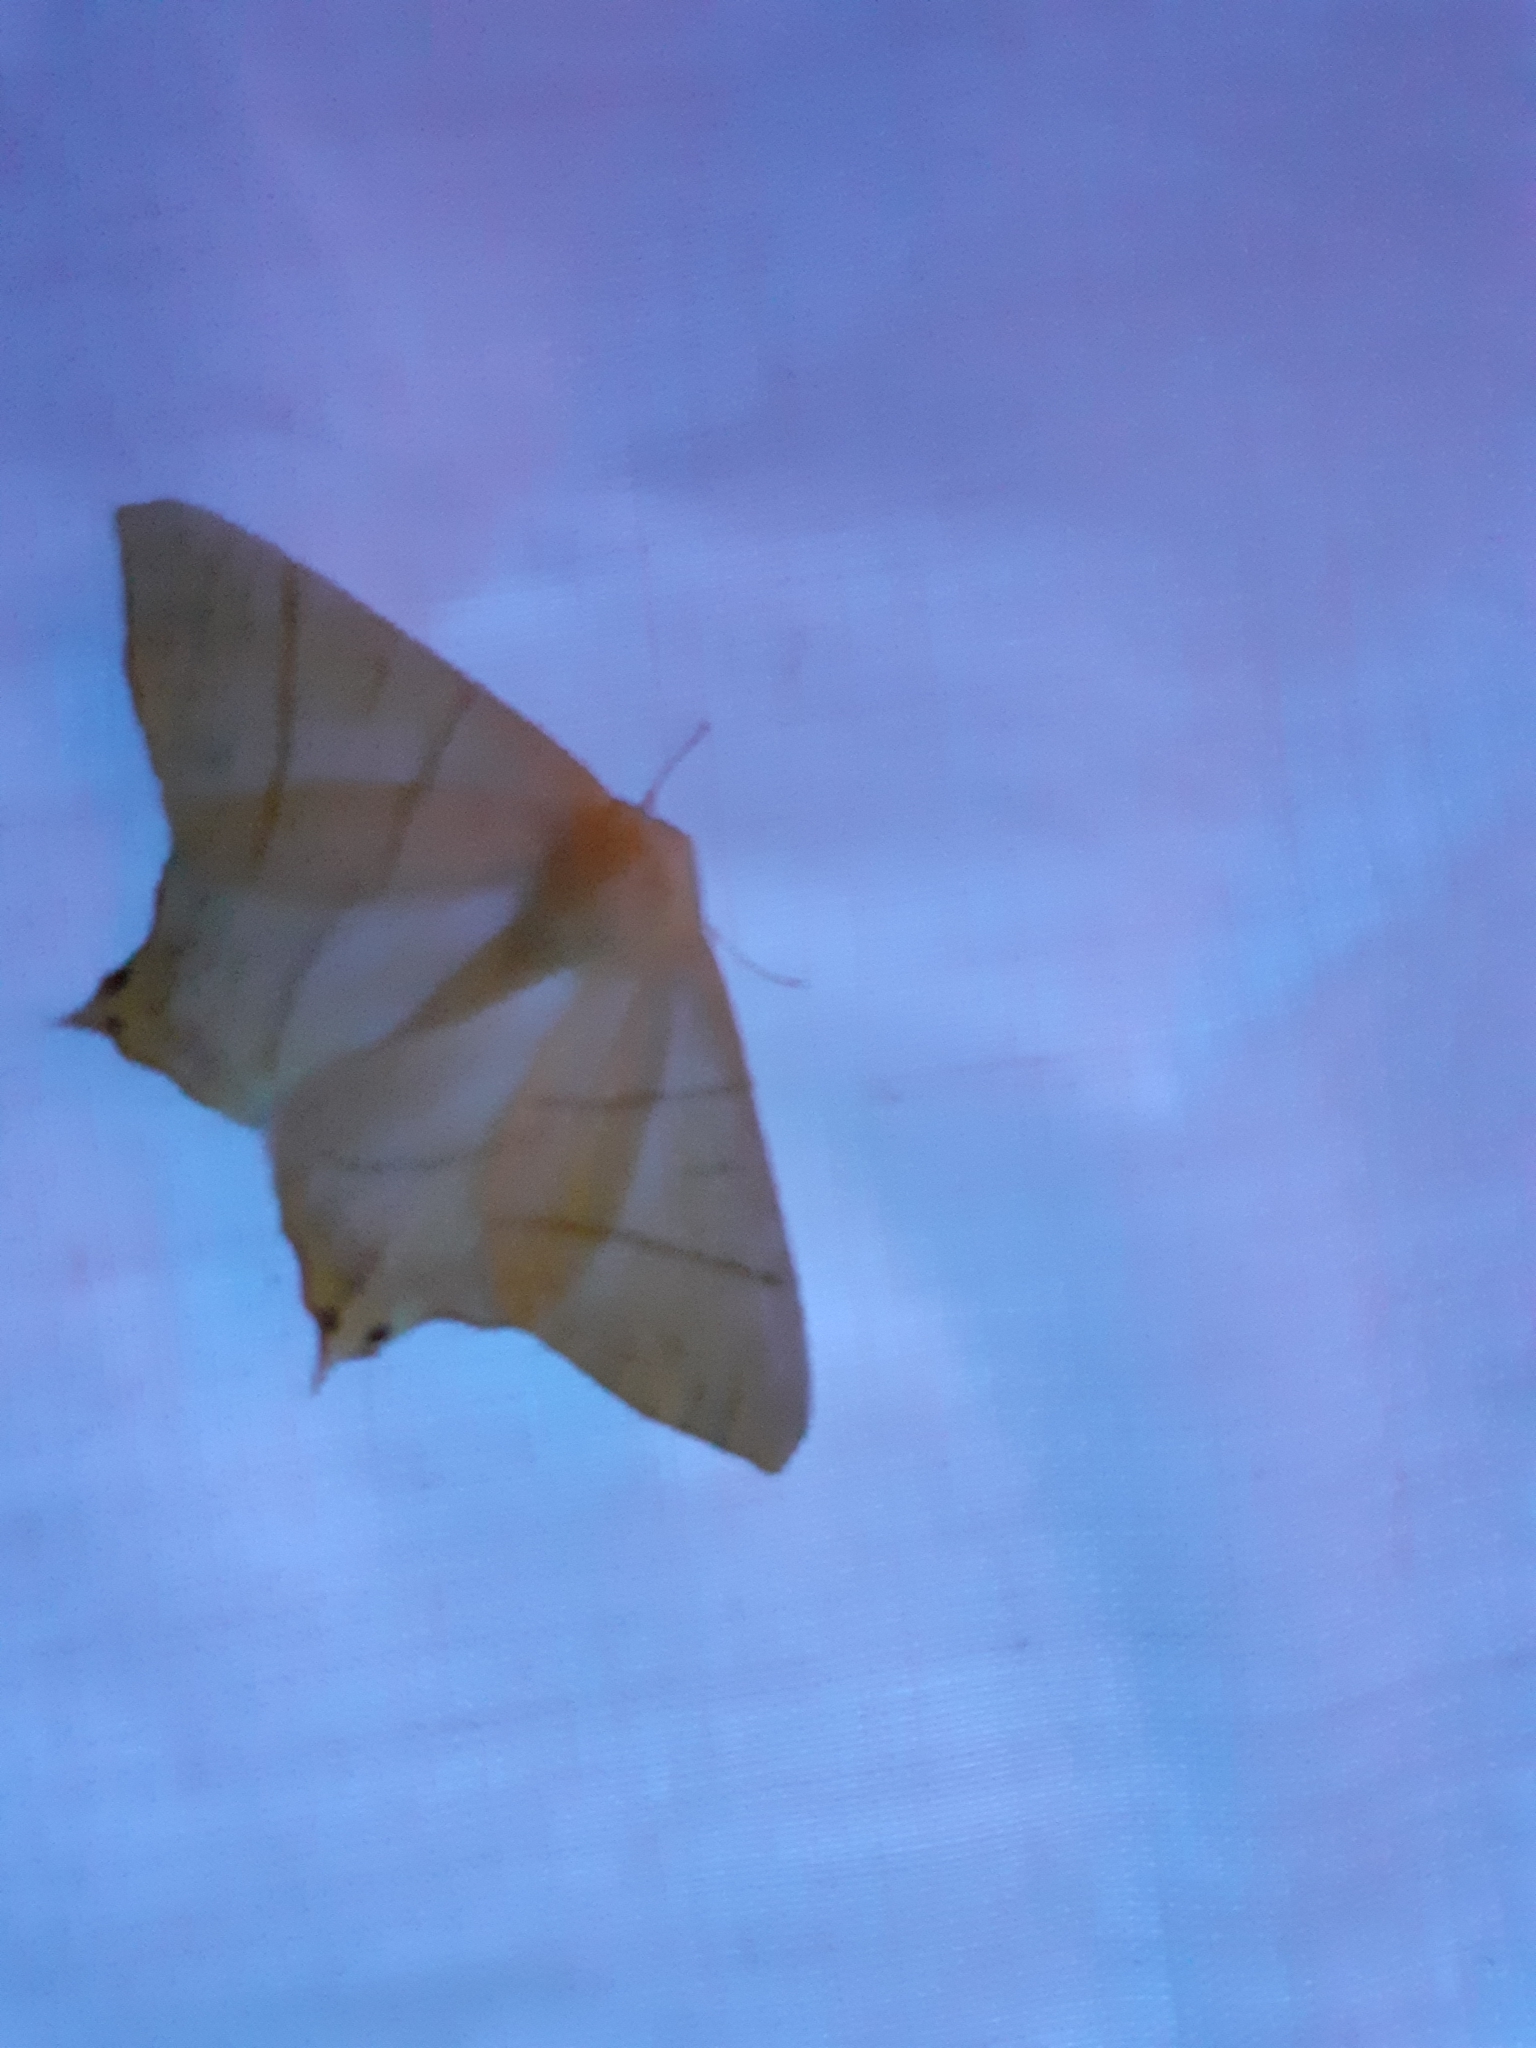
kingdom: Animalia
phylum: Arthropoda
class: Insecta
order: Lepidoptera
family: Geometridae
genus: Ourapteryx
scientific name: Ourapteryx sambucaria
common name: Swallow-tailed moth
